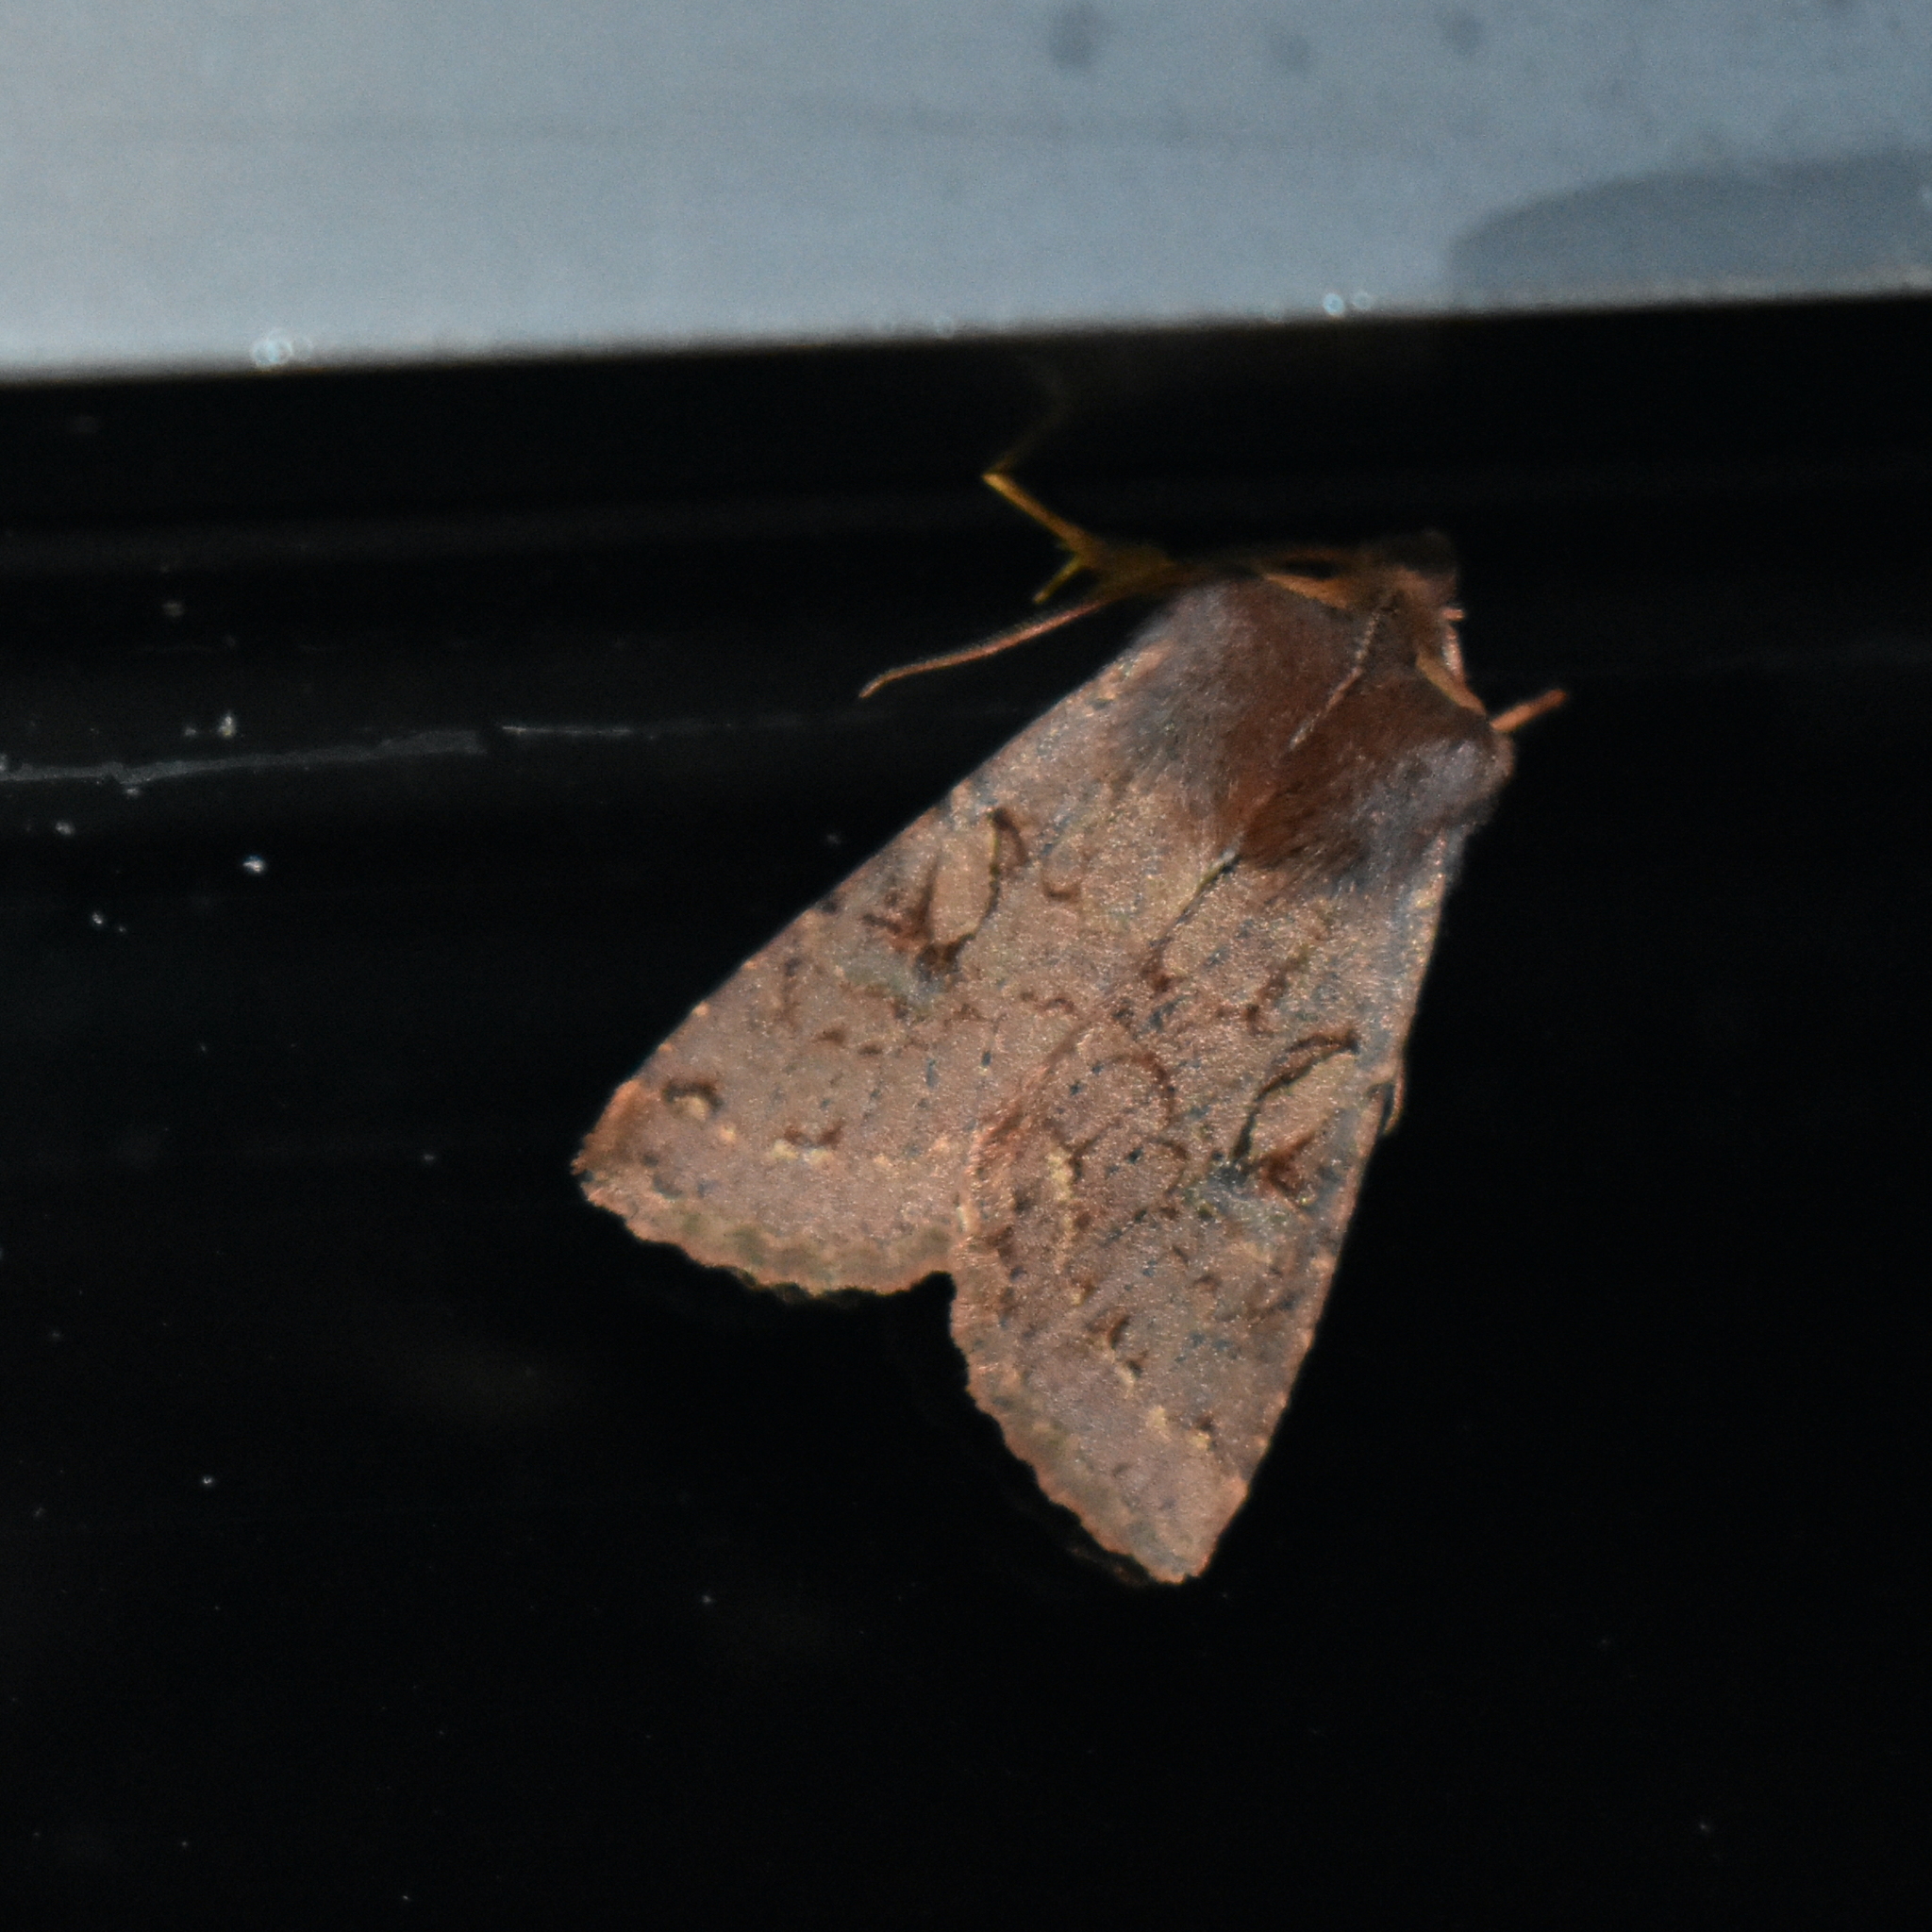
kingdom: Animalia
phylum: Arthropoda
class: Insecta
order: Lepidoptera
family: Noctuidae
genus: Orthosia
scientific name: Orthosia praeses
